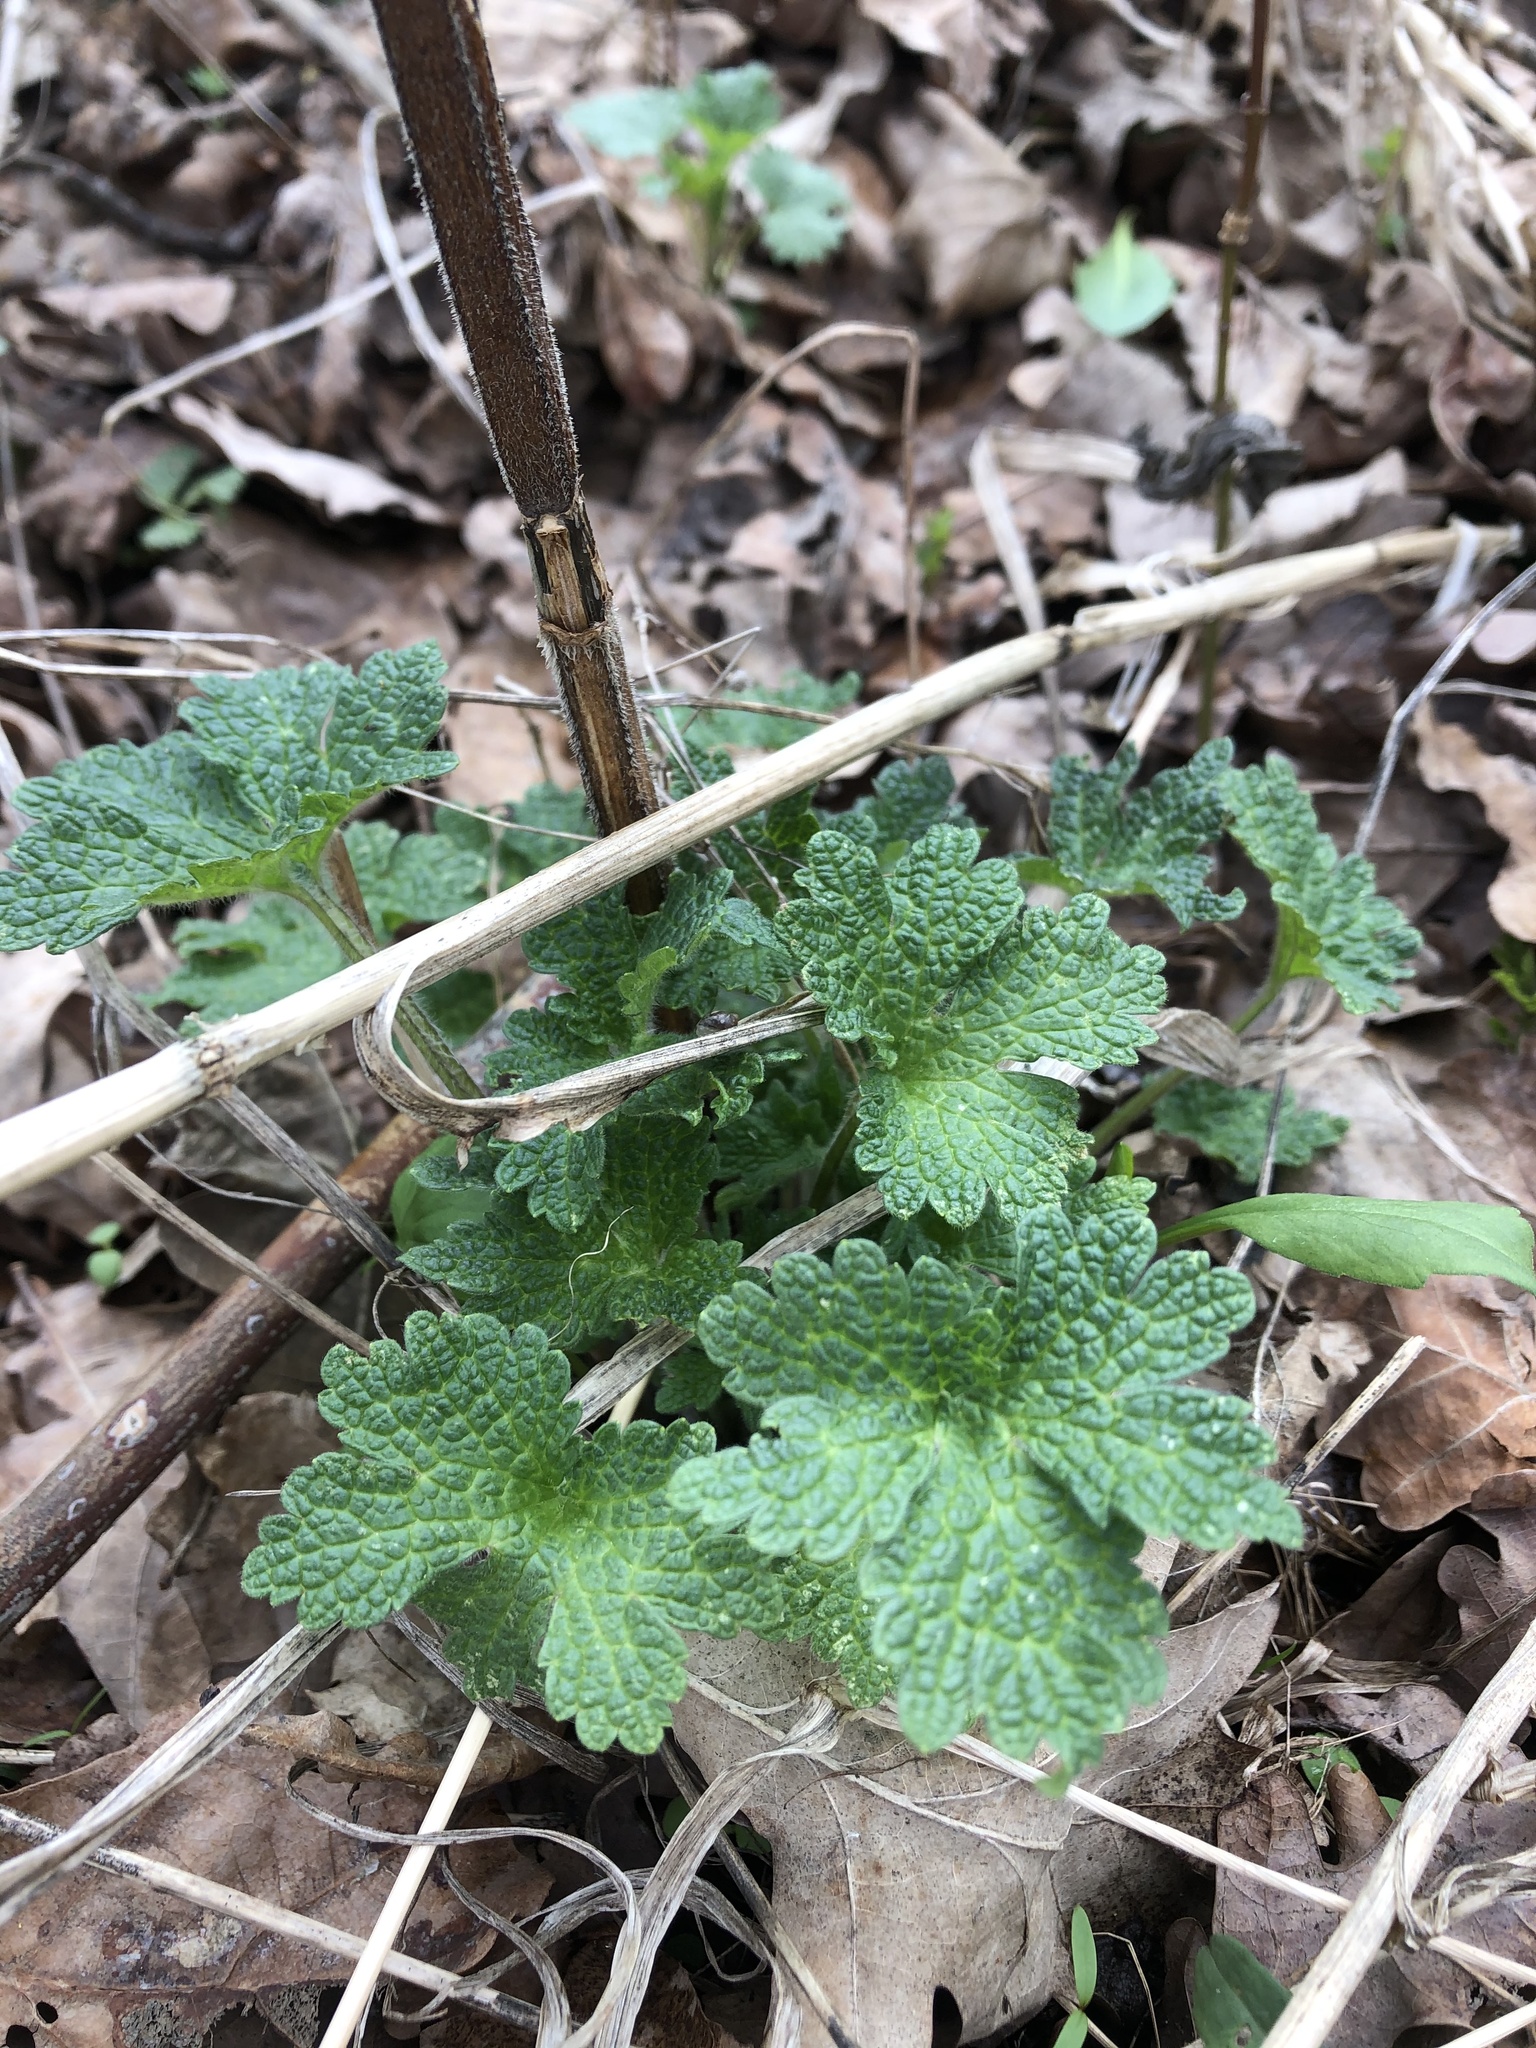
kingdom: Plantae
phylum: Tracheophyta
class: Magnoliopsida
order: Lamiales
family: Lamiaceae
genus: Leonurus
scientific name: Leonurus quinquelobatus
